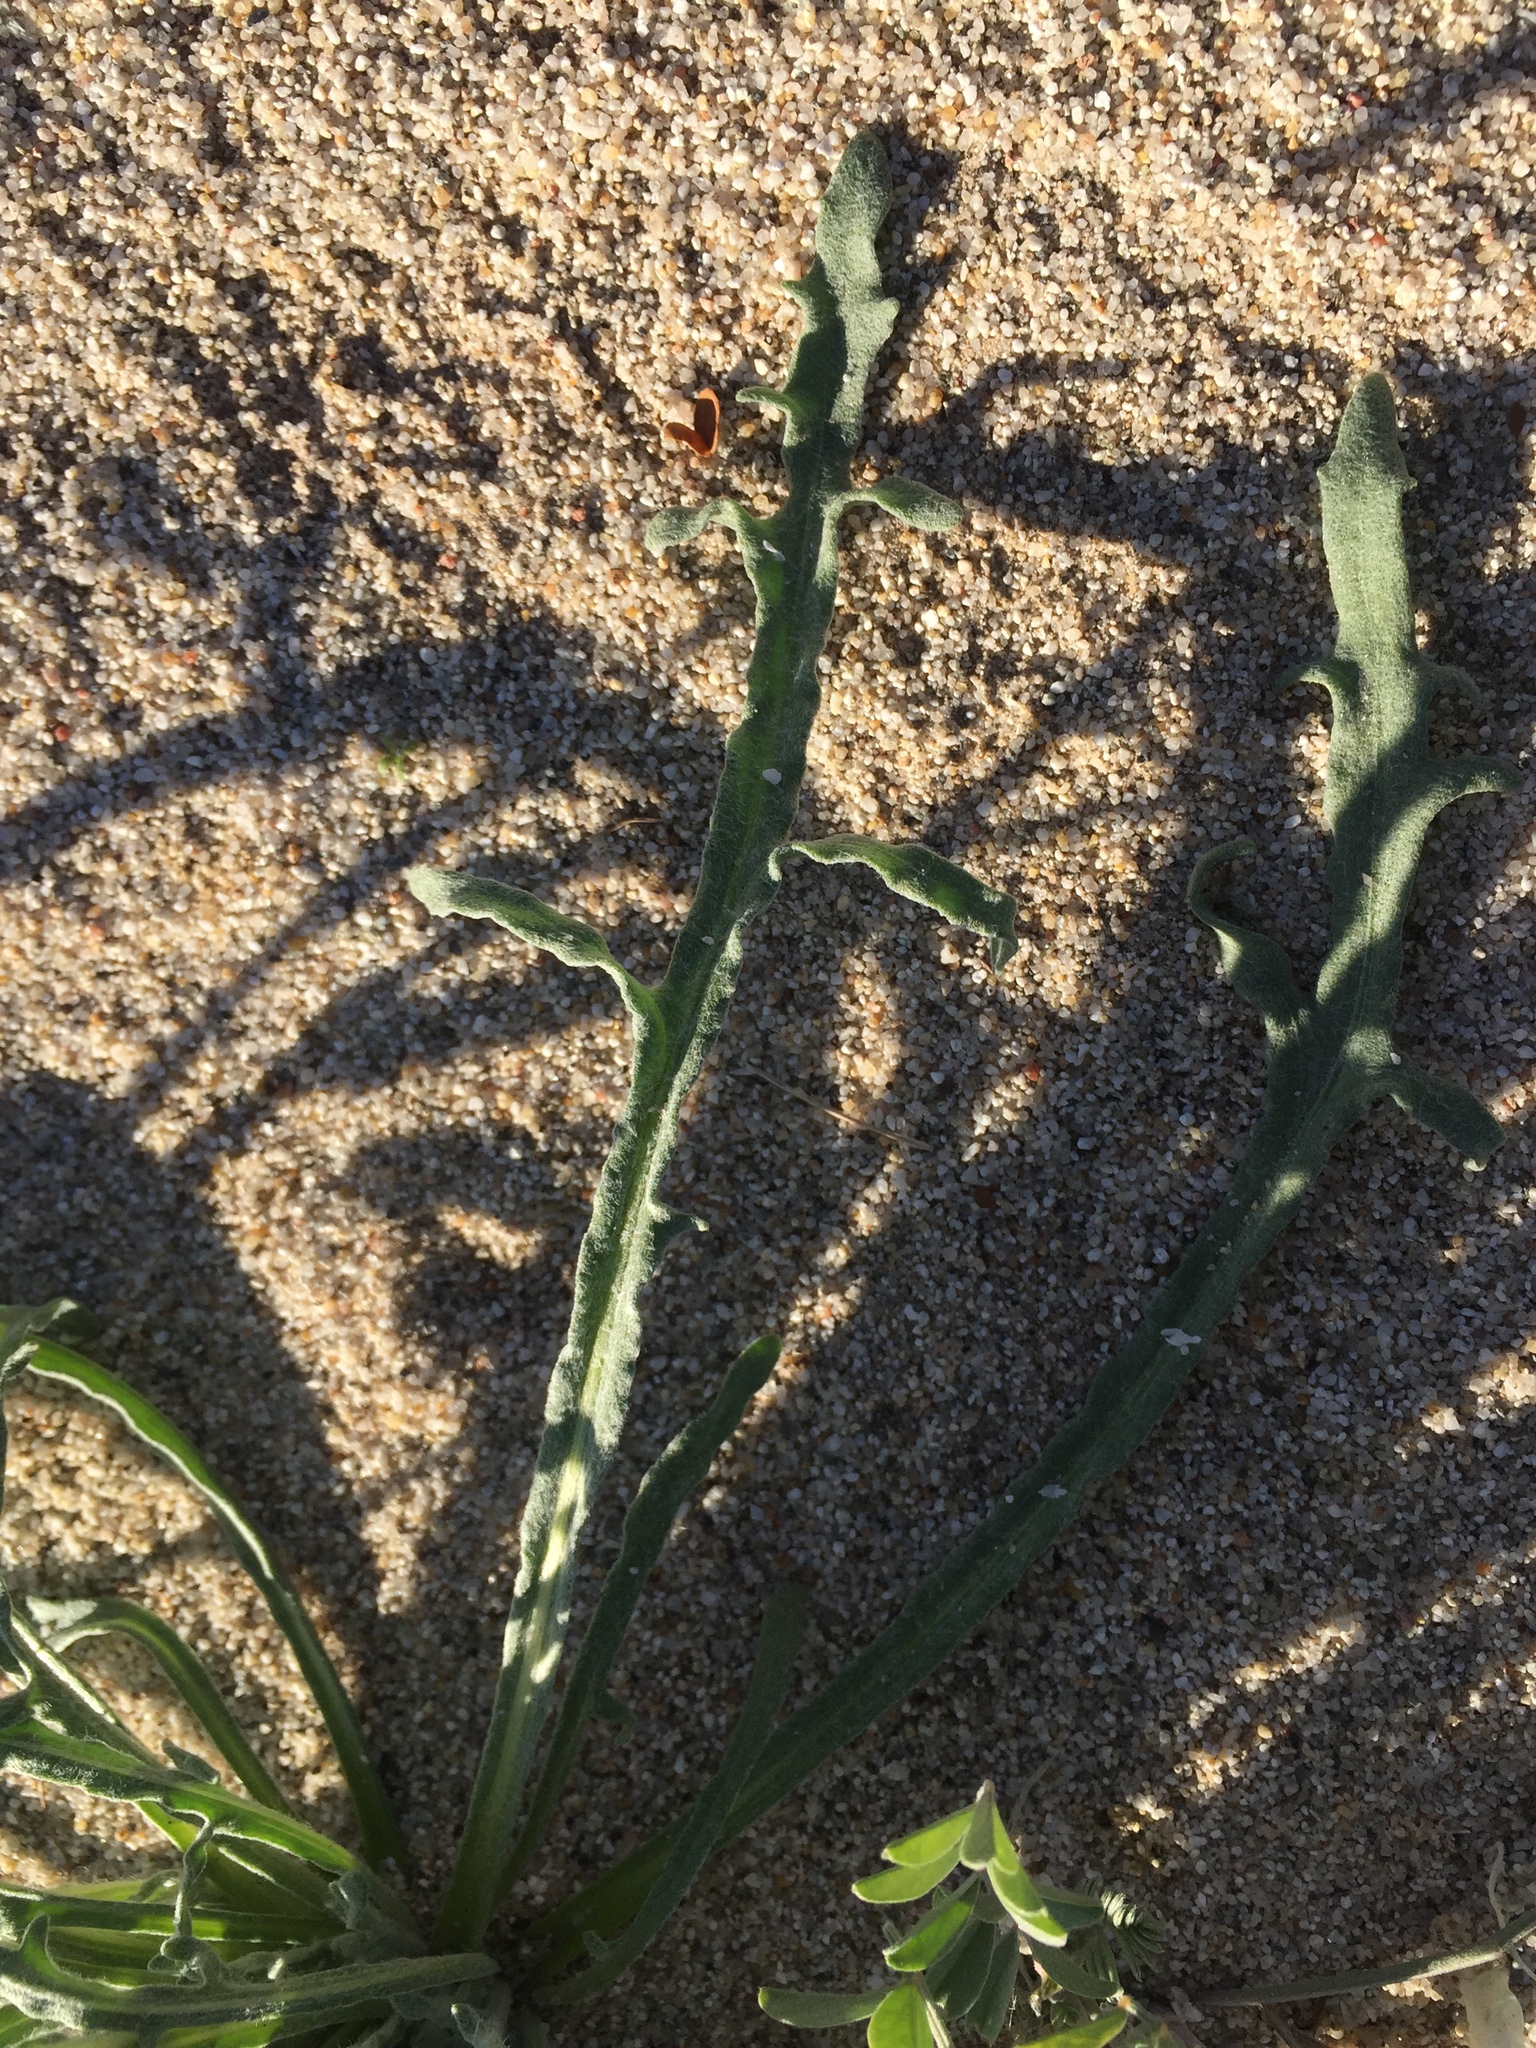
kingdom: Plantae
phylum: Tracheophyta
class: Magnoliopsida
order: Asterales
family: Asteraceae
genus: Baileya
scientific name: Baileya pauciradiata
